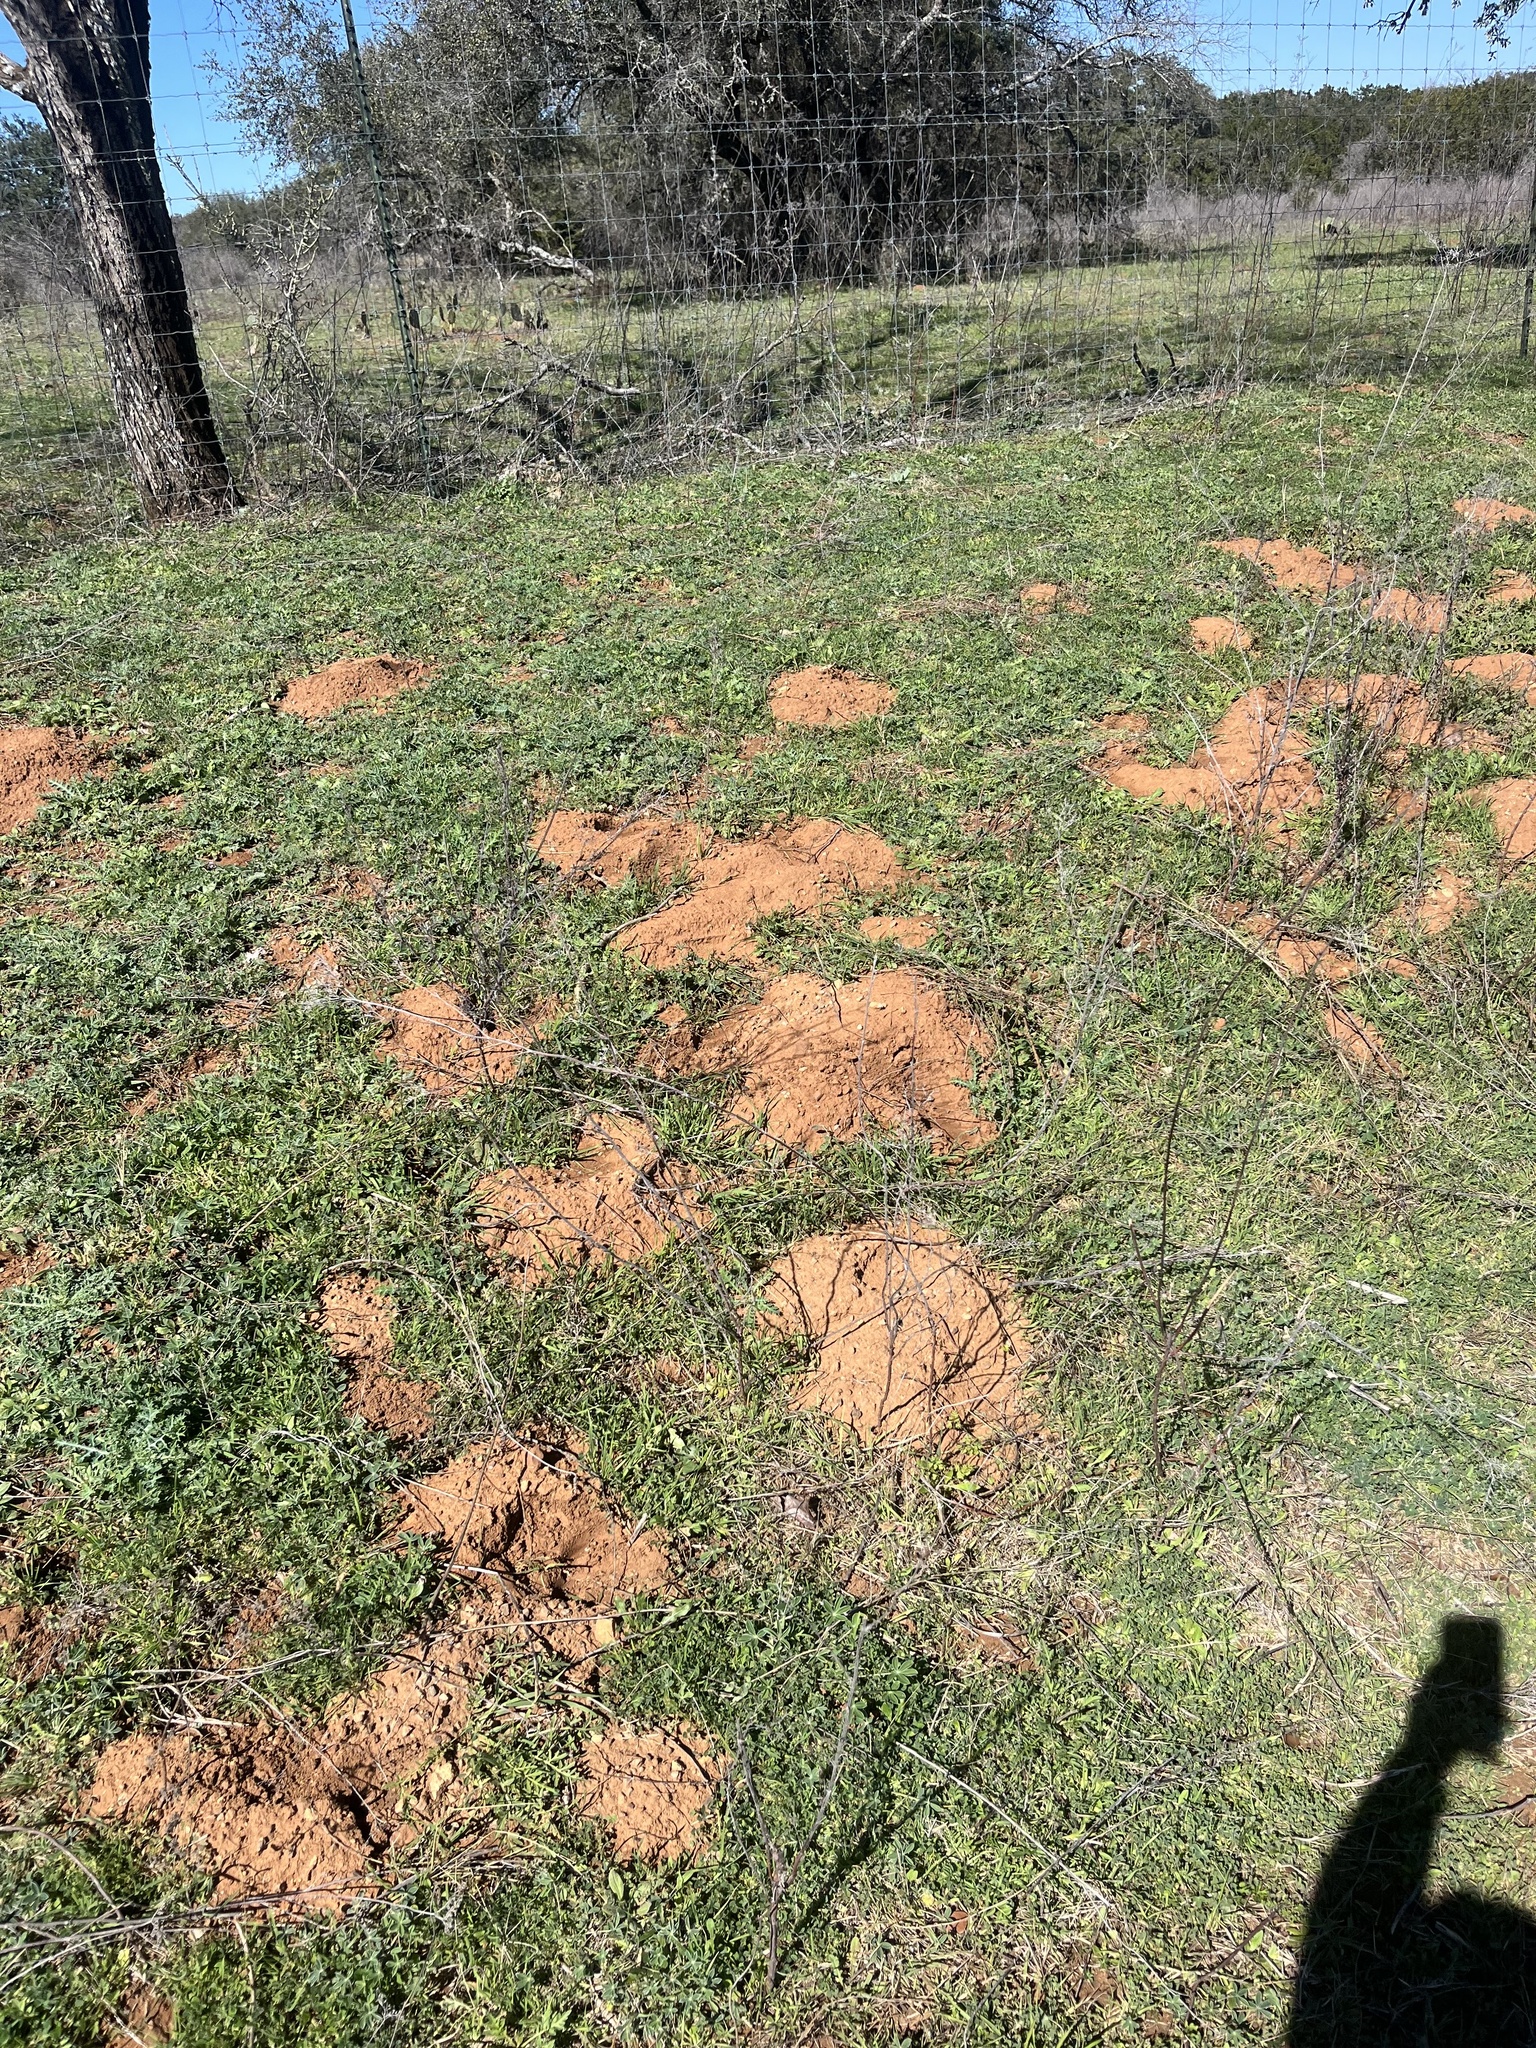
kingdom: Animalia
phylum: Chordata
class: Mammalia
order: Rodentia
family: Geomyidae
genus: Geomys
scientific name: Geomys texensis
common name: Llano pocket gopher
